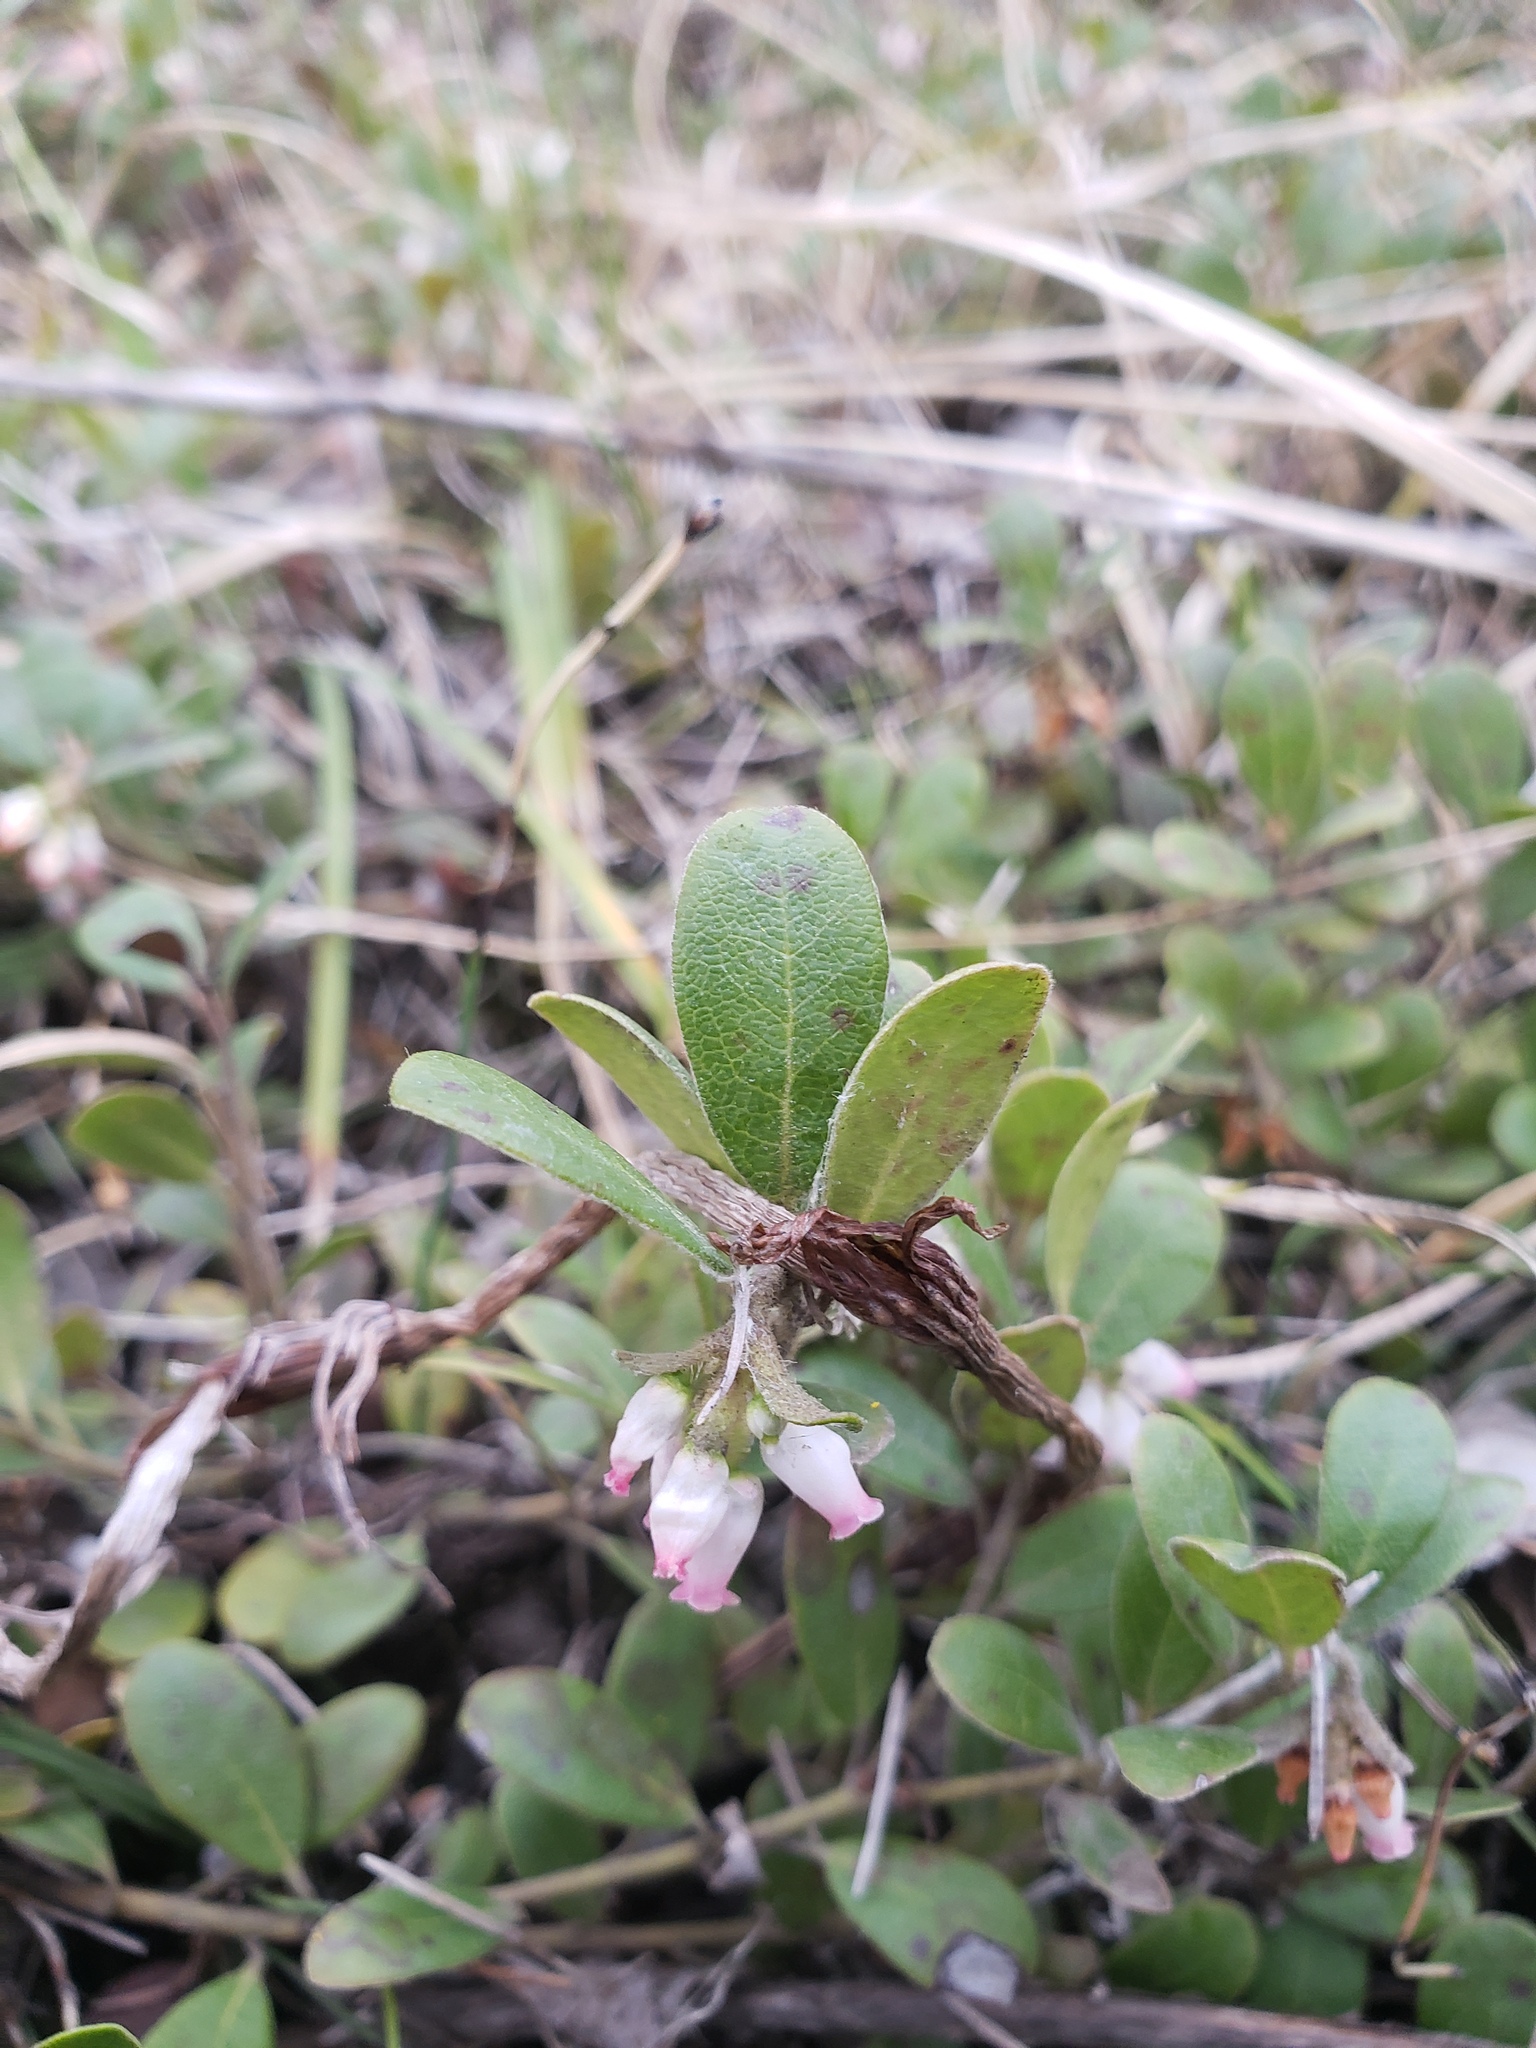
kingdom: Plantae
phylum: Tracheophyta
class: Magnoliopsida
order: Ericales
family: Ericaceae
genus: Arctostaphylos
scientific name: Arctostaphylos uva-ursi
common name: Bearberry
